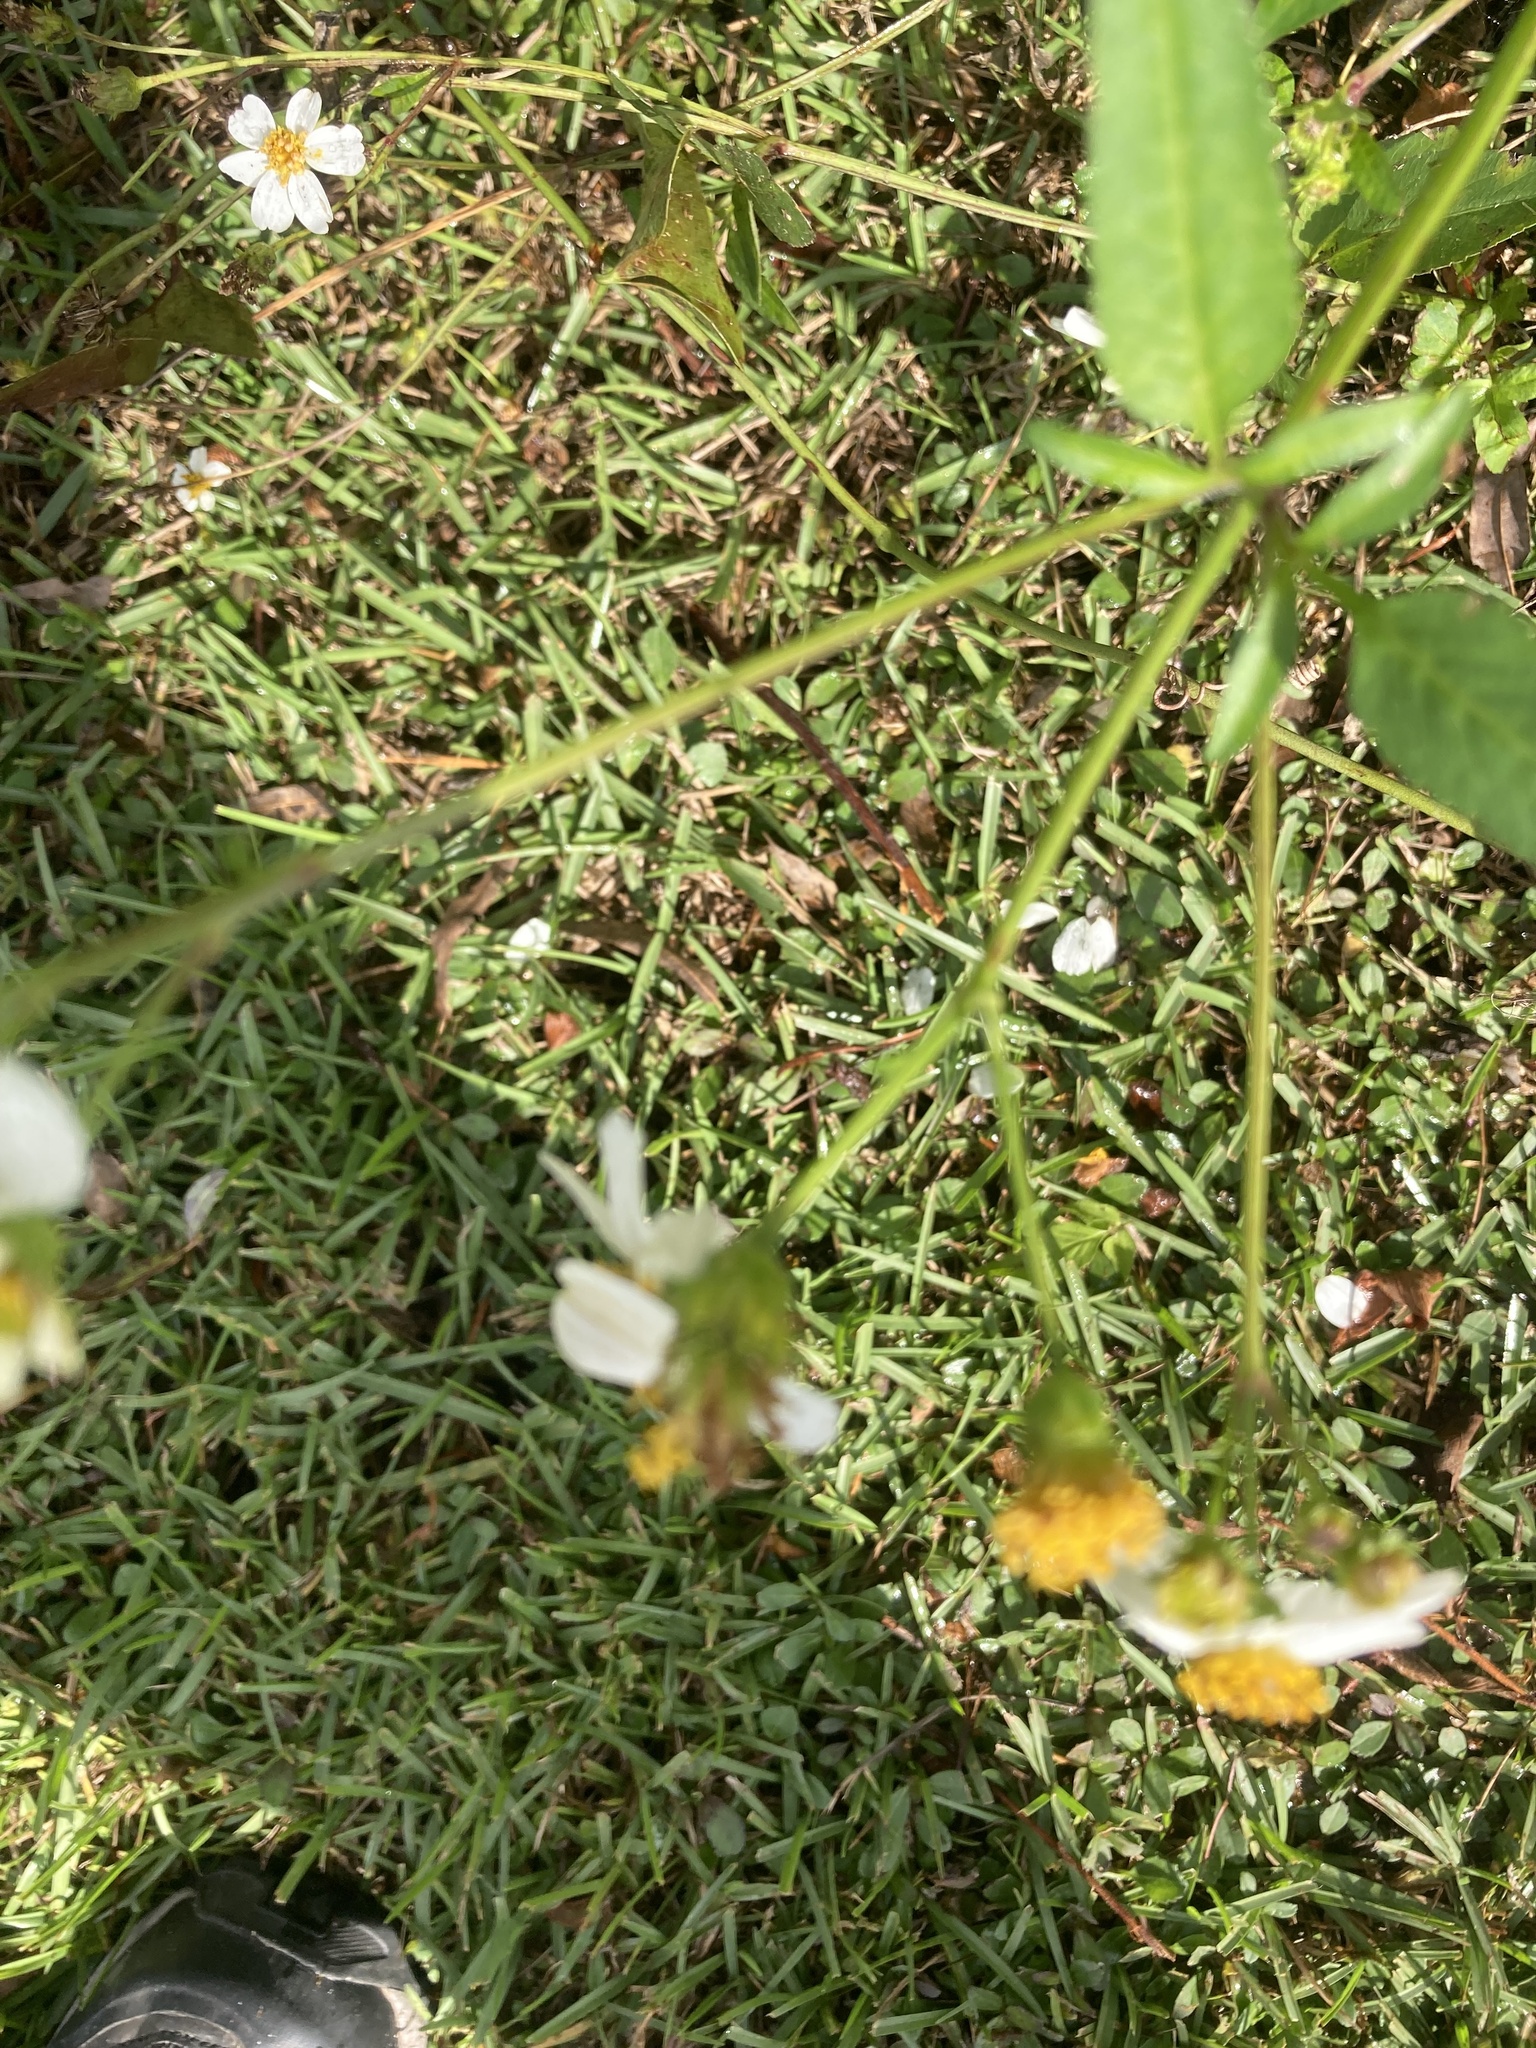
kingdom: Plantae
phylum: Tracheophyta
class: Magnoliopsida
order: Asterales
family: Asteraceae
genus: Bidens
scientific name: Bidens alba
